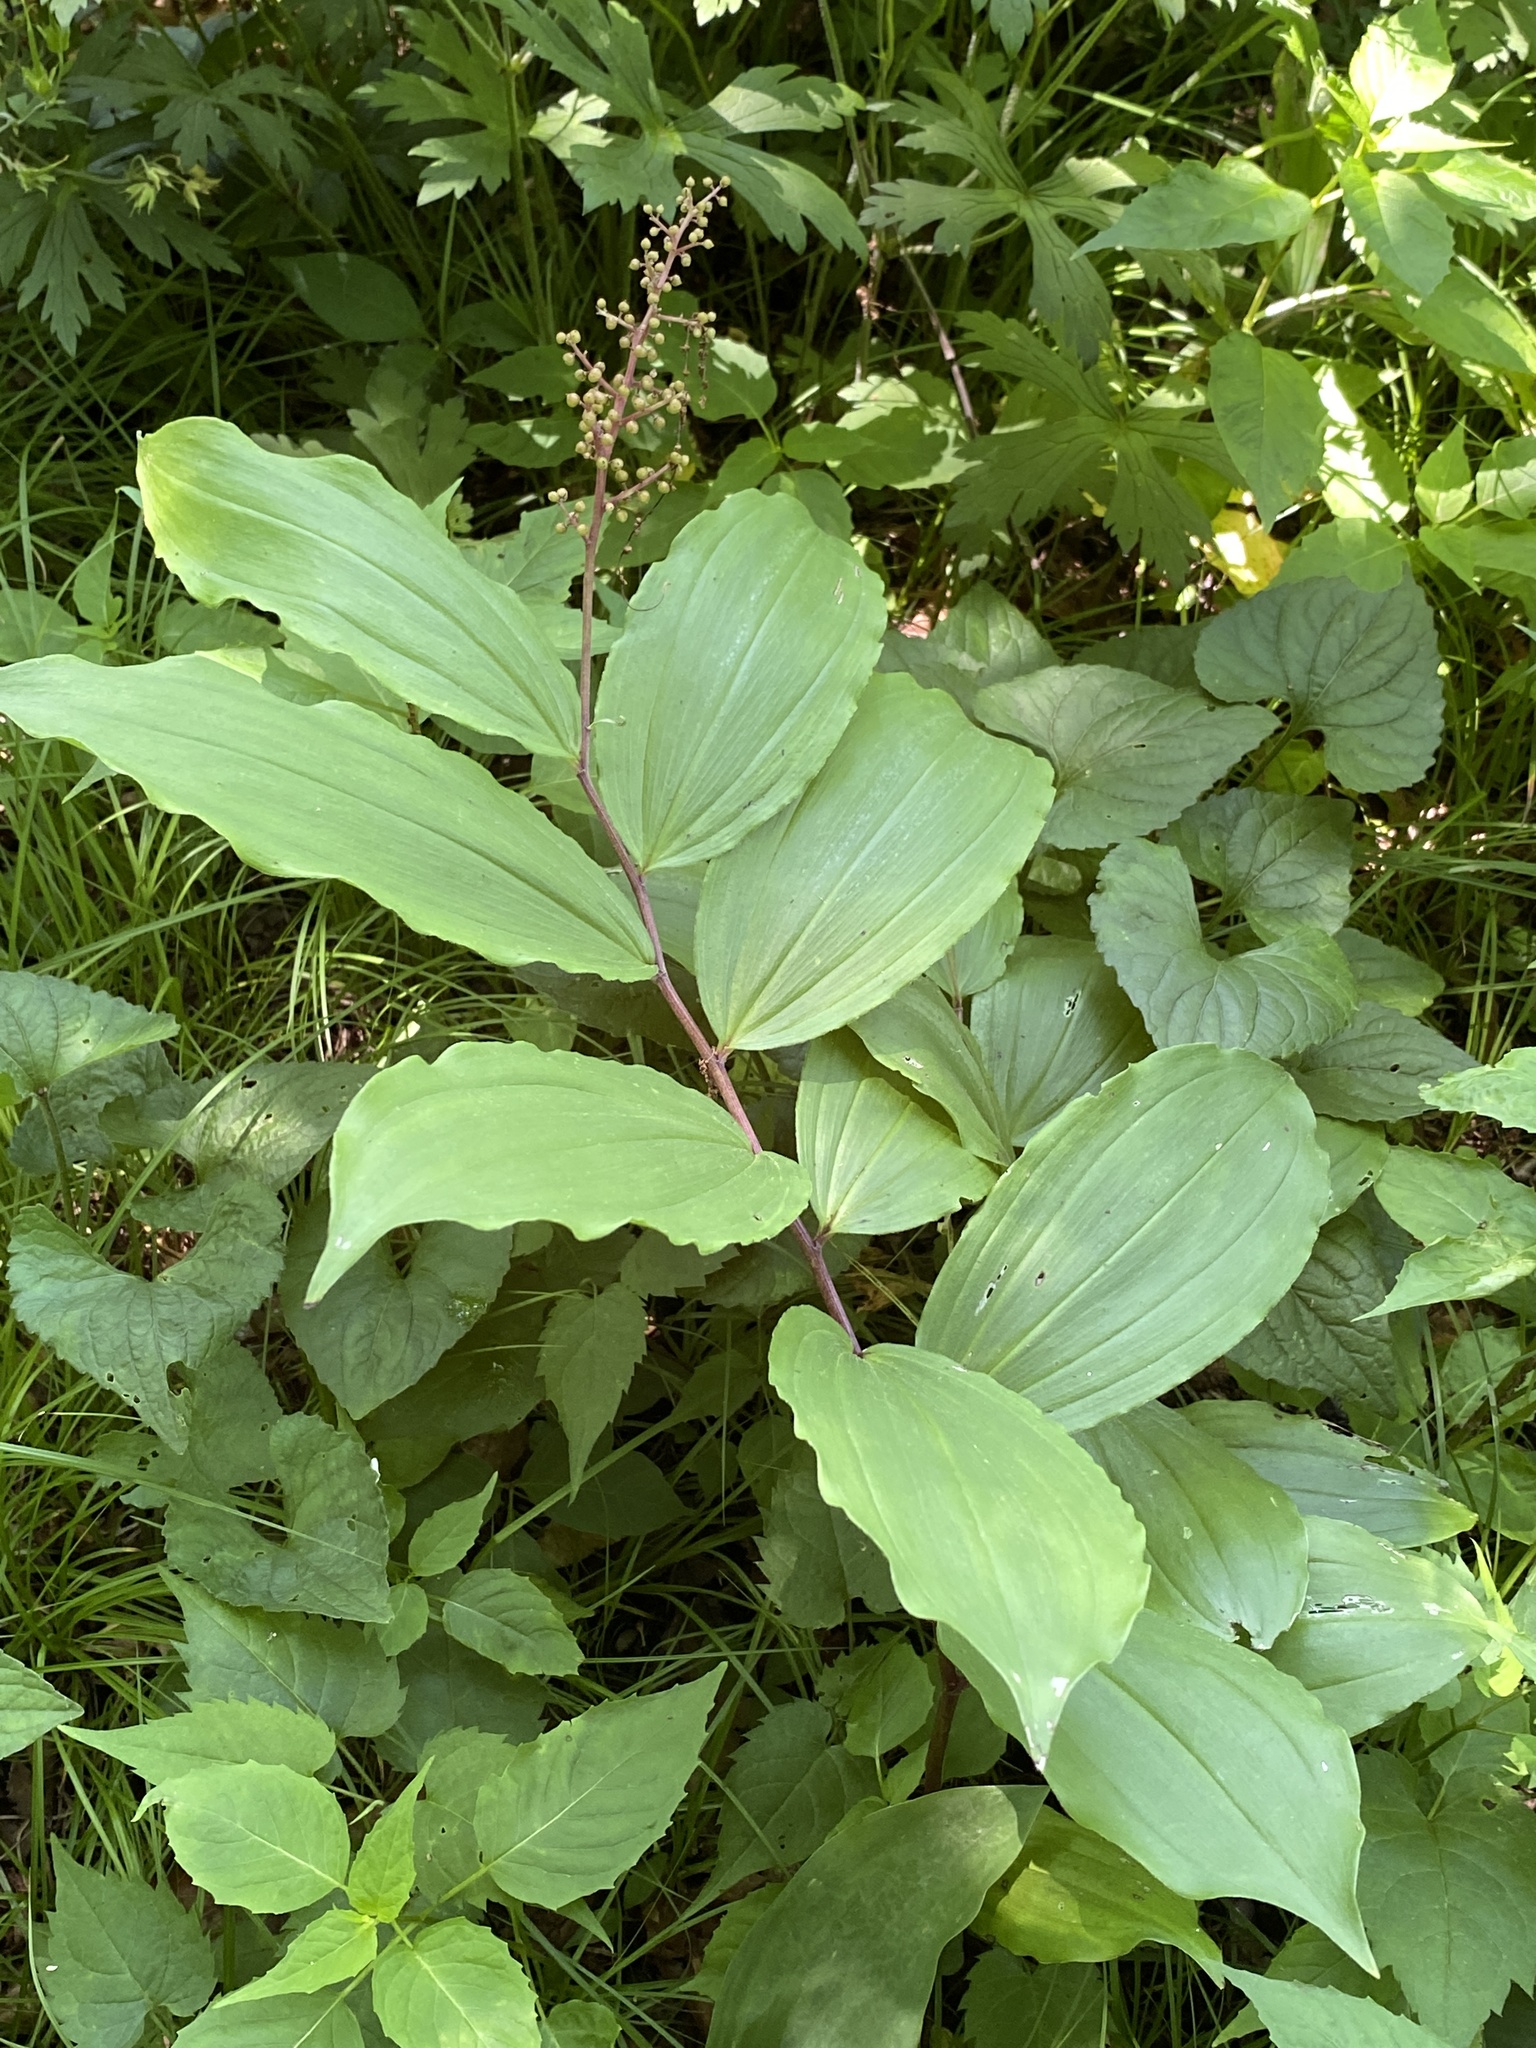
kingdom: Plantae
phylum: Tracheophyta
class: Liliopsida
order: Asparagales
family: Asparagaceae
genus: Maianthemum
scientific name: Maianthemum racemosum
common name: False spikenard
